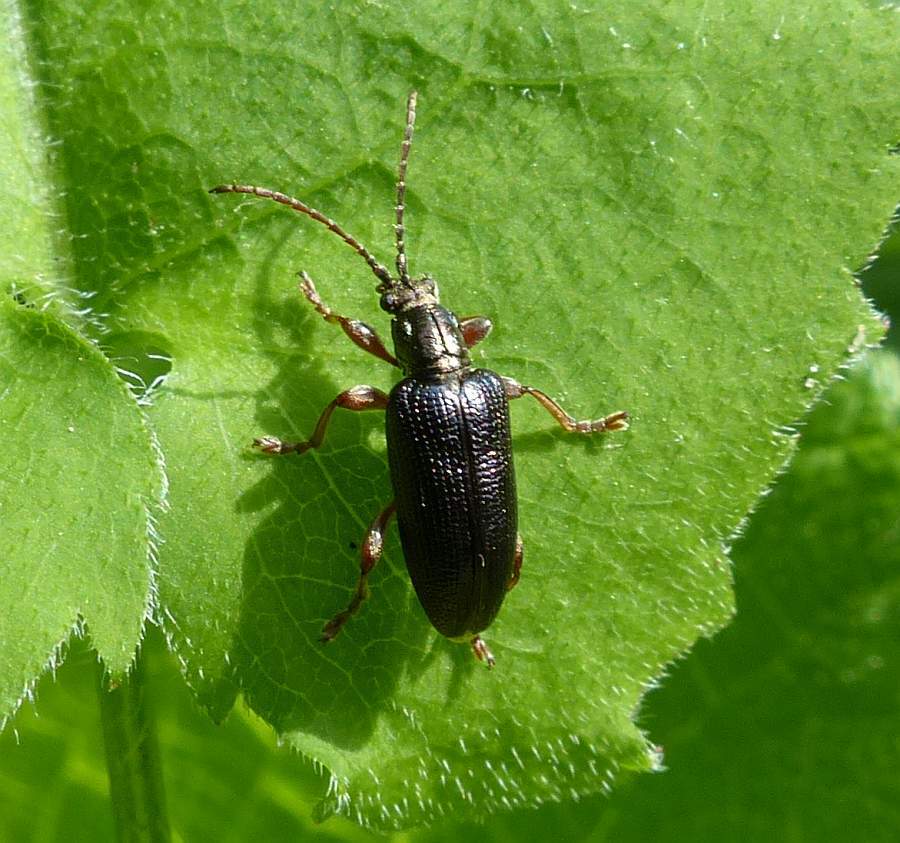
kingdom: Animalia
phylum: Arthropoda
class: Insecta
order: Coleoptera
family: Chrysomelidae
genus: Plateumaris
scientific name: Plateumaris shoemakeri
